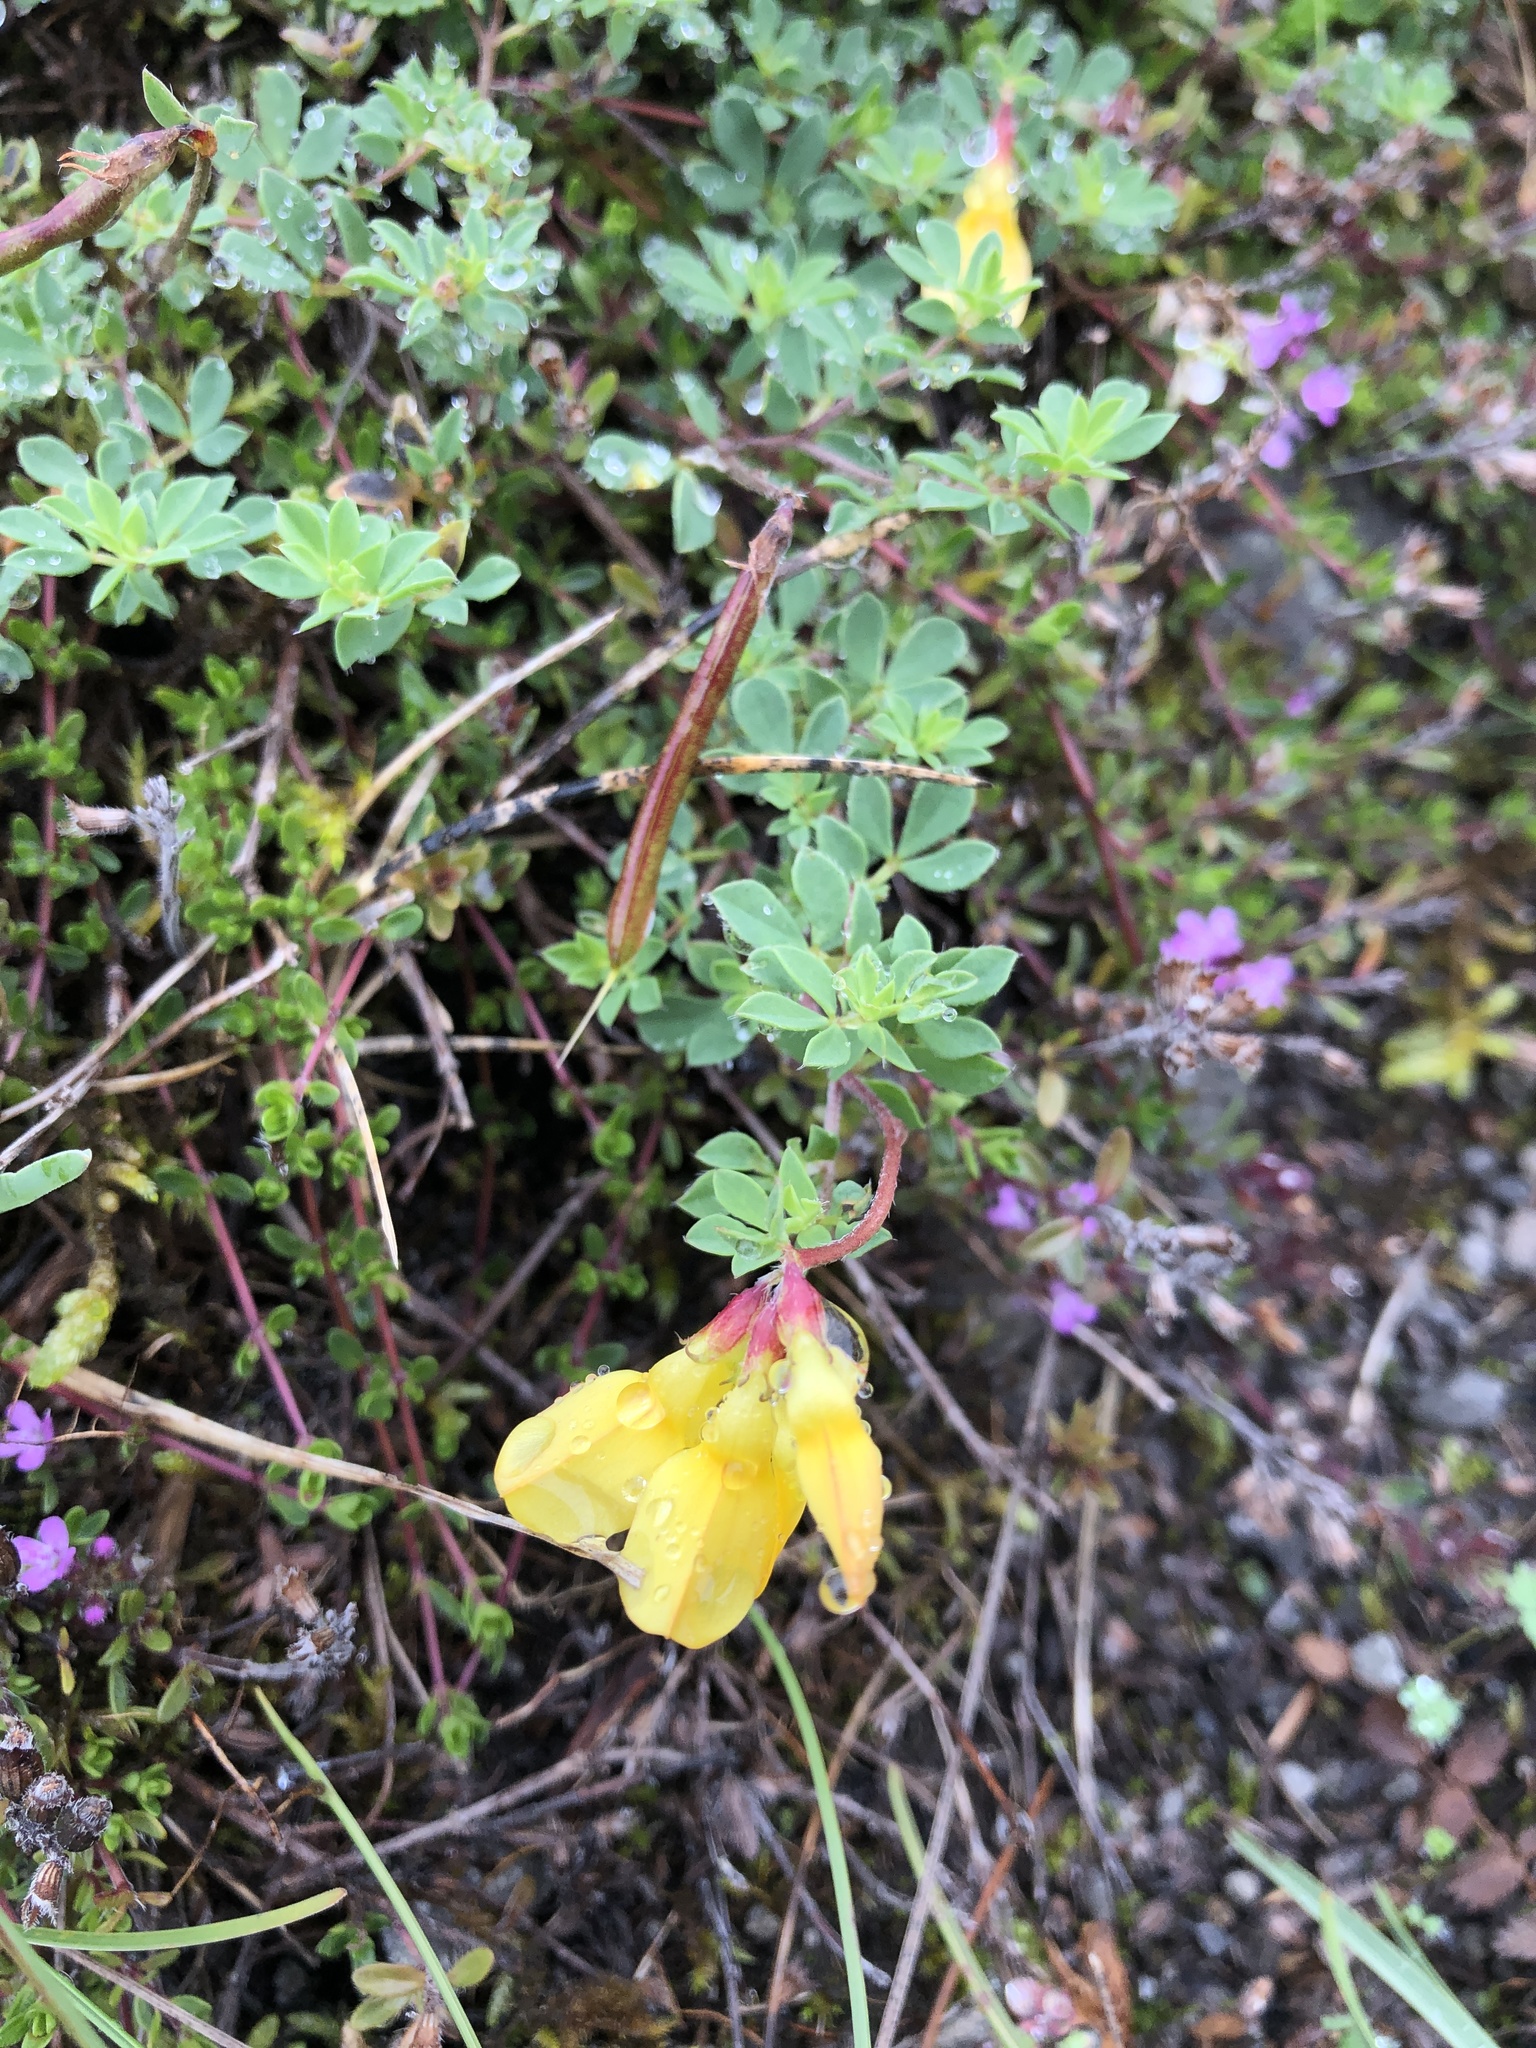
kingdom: Plantae
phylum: Tracheophyta
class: Magnoliopsida
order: Fabales
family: Fabaceae
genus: Lotus
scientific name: Lotus corniculatus
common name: Common bird's-foot-trefoil
